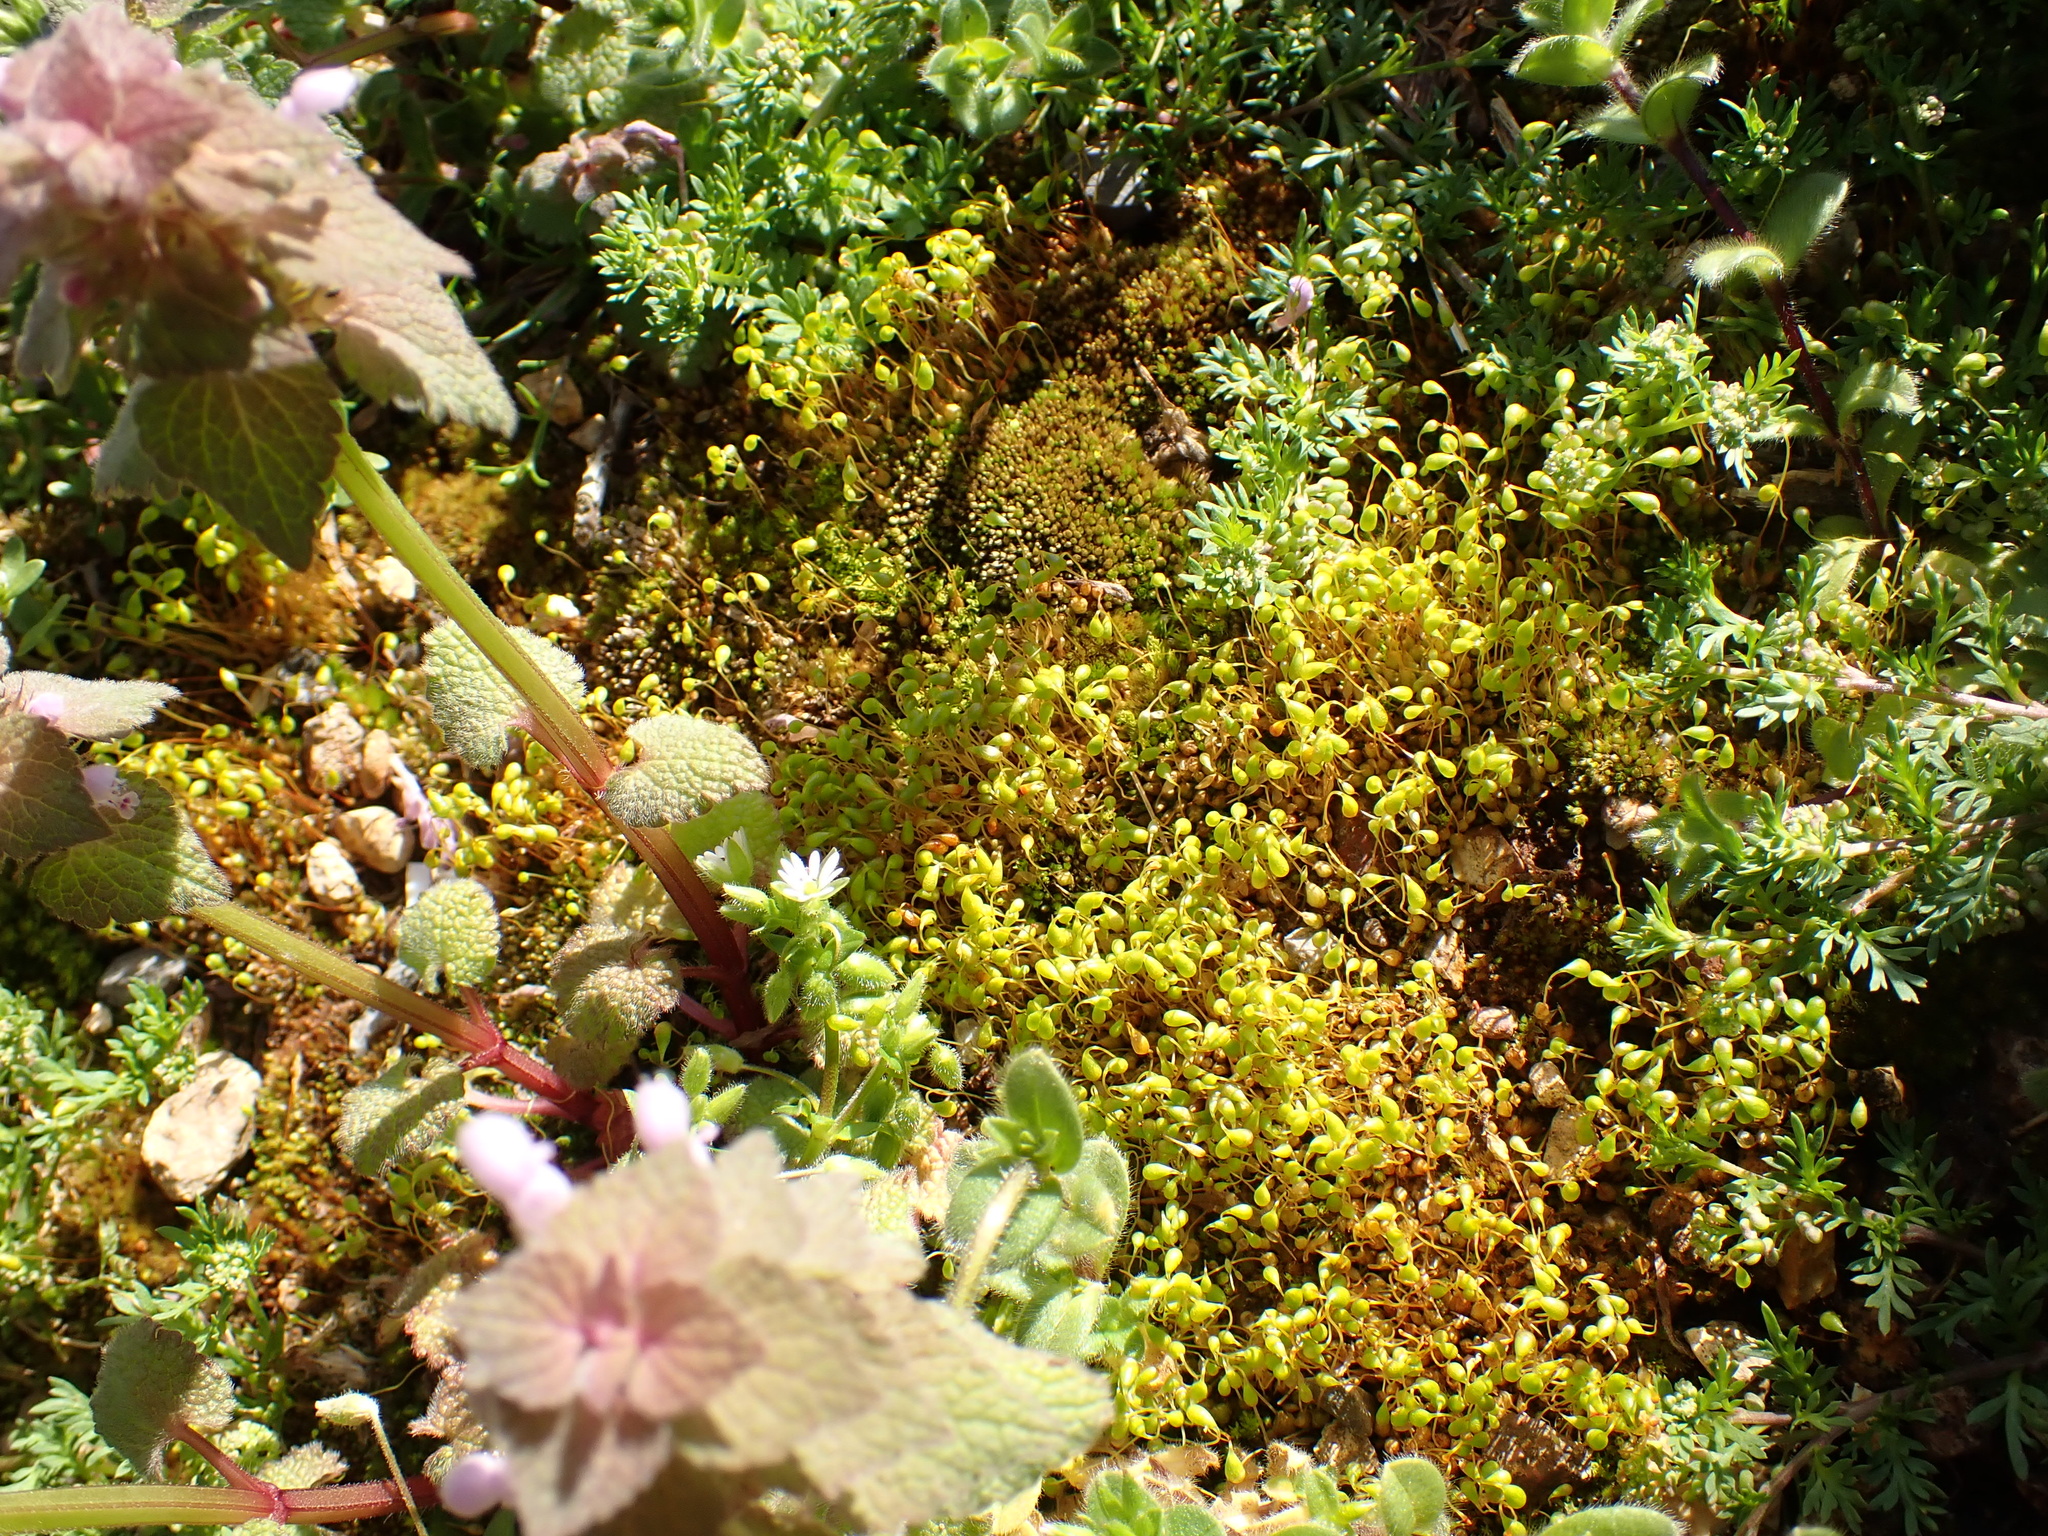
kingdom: Plantae
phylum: Bryophyta
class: Bryopsida
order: Funariales
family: Funariaceae
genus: Funaria
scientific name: Funaria flavicans
